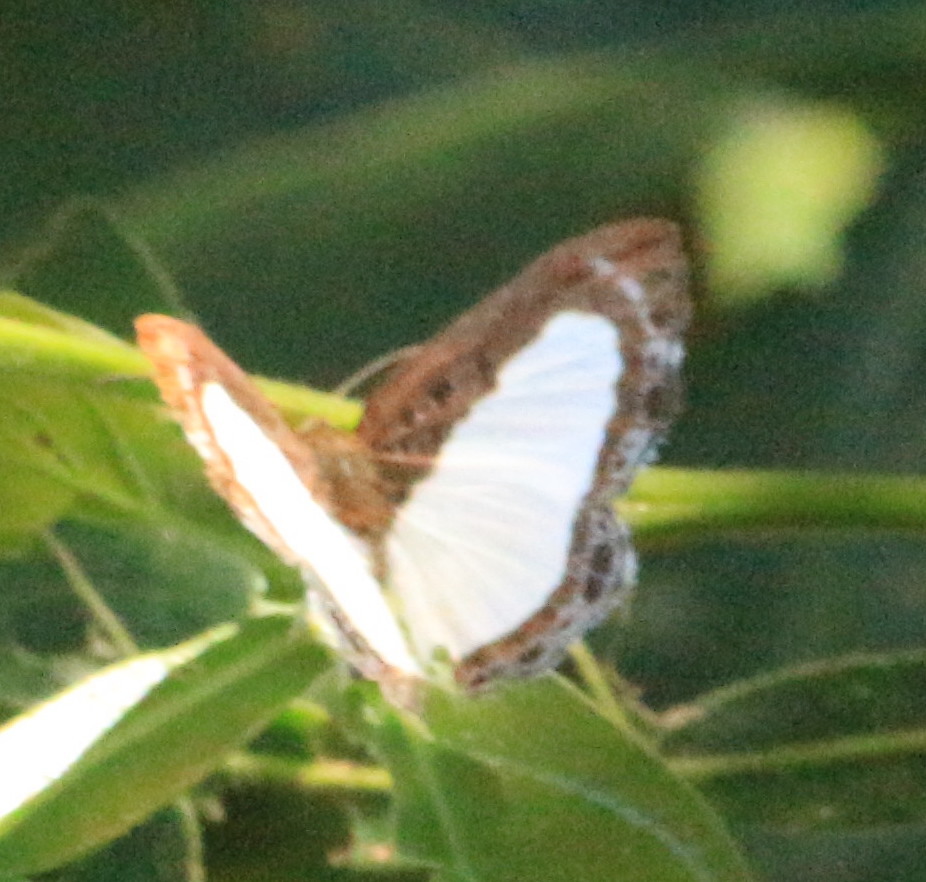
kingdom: Animalia
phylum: Arthropoda
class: Insecta
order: Lepidoptera
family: Riodinidae
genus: Nymula
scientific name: Nymula calyce
